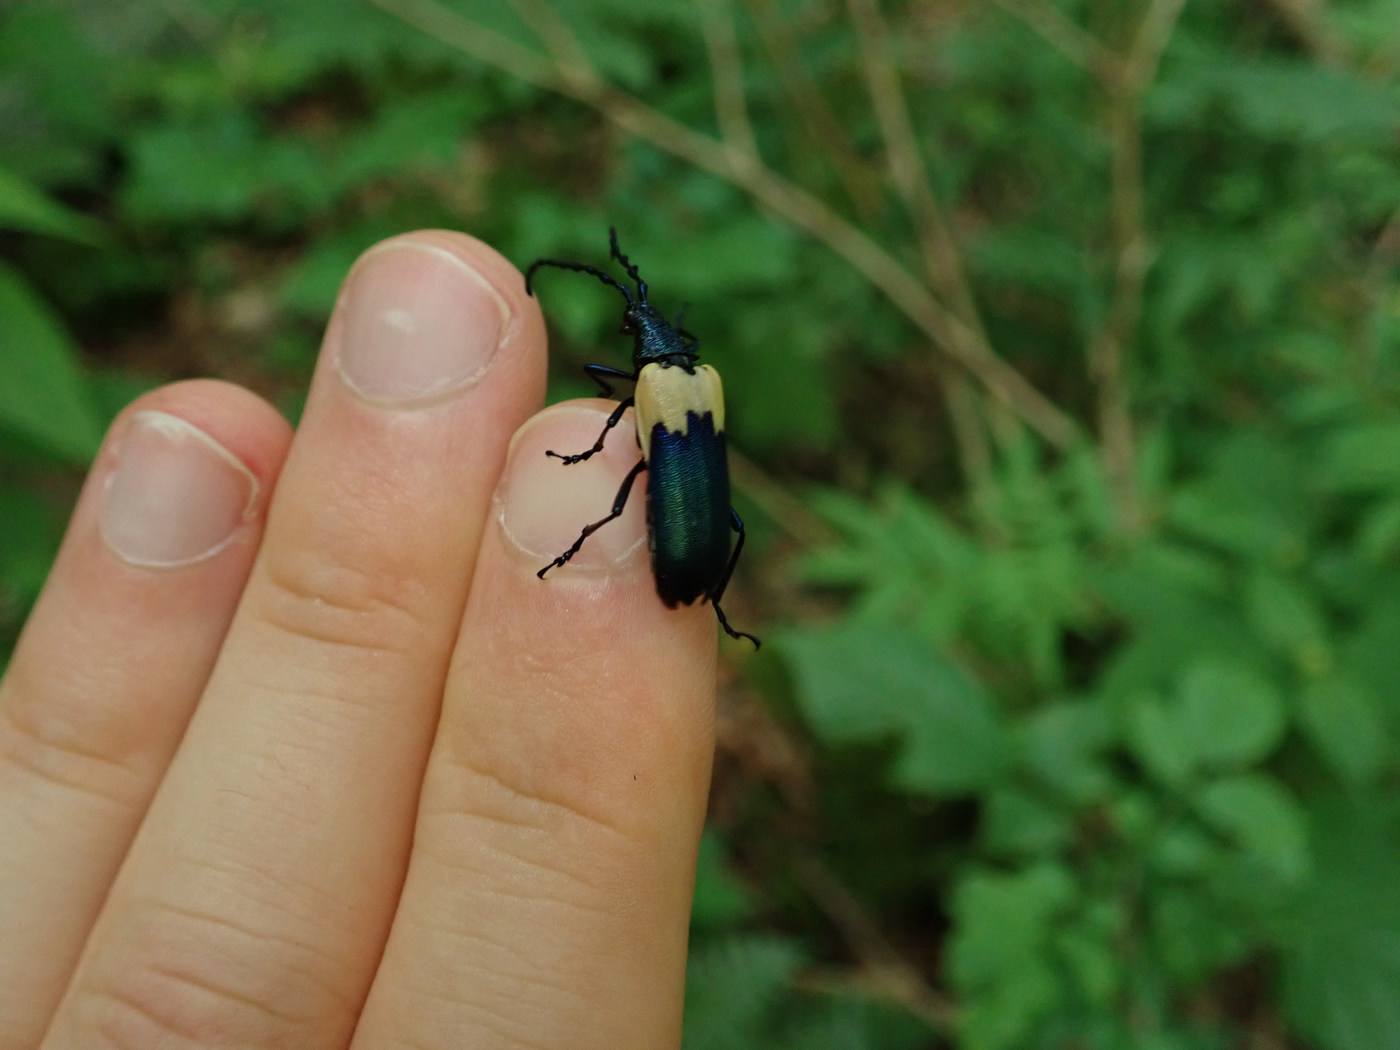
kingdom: Animalia
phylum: Arthropoda
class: Insecta
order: Coleoptera
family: Cerambycidae
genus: Desmocerus
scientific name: Desmocerus palliatus
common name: Eastern elderberry borer
